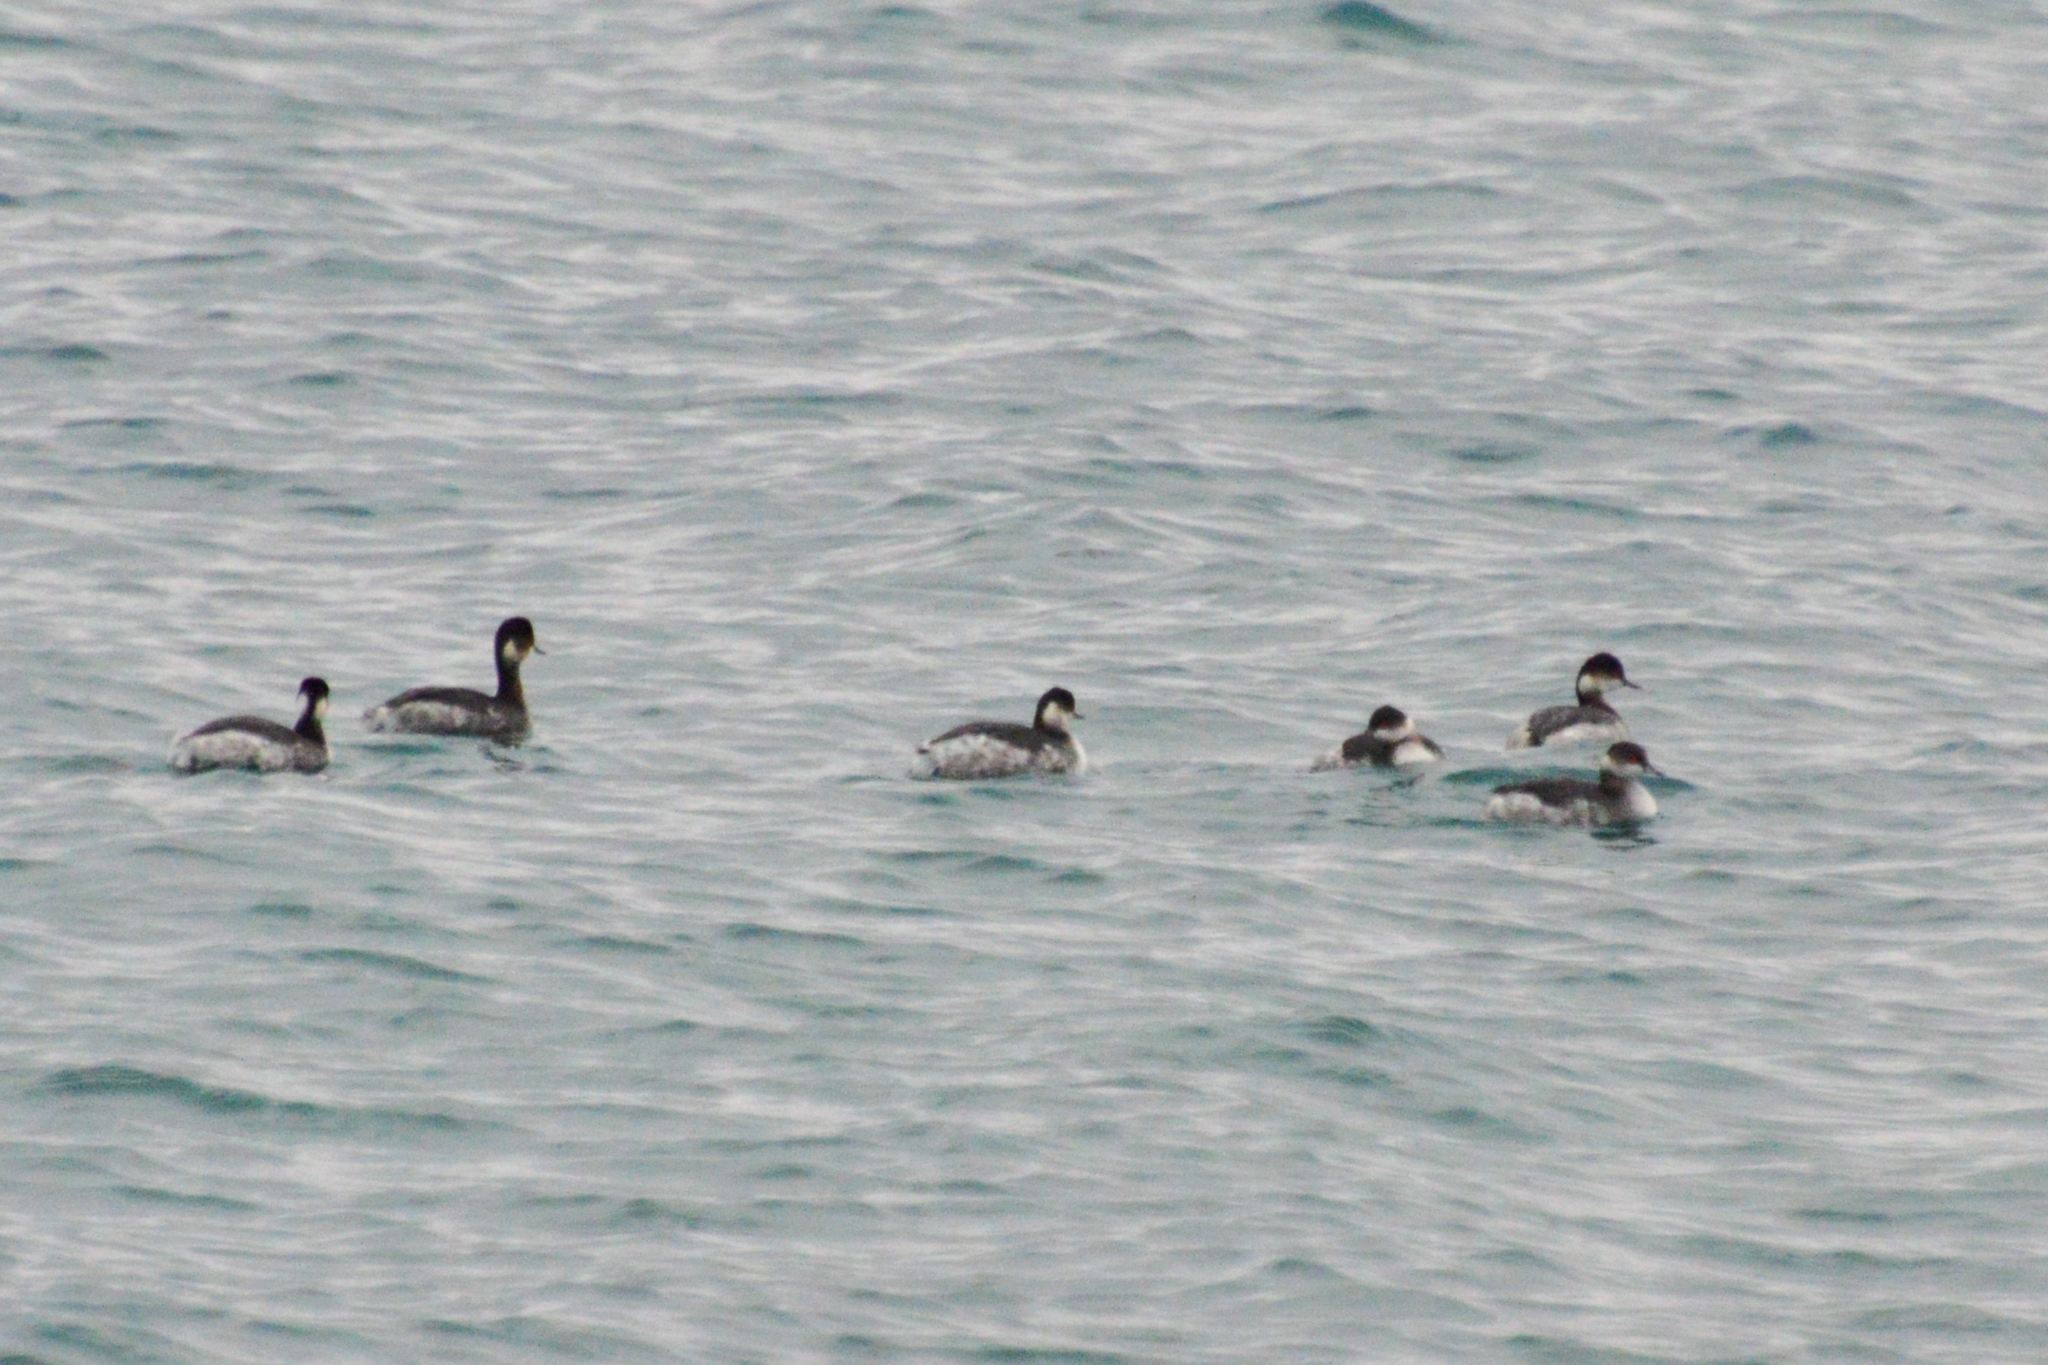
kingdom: Animalia
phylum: Chordata
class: Aves
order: Podicipediformes
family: Podicipedidae
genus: Podiceps
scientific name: Podiceps nigricollis
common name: Black-necked grebe
